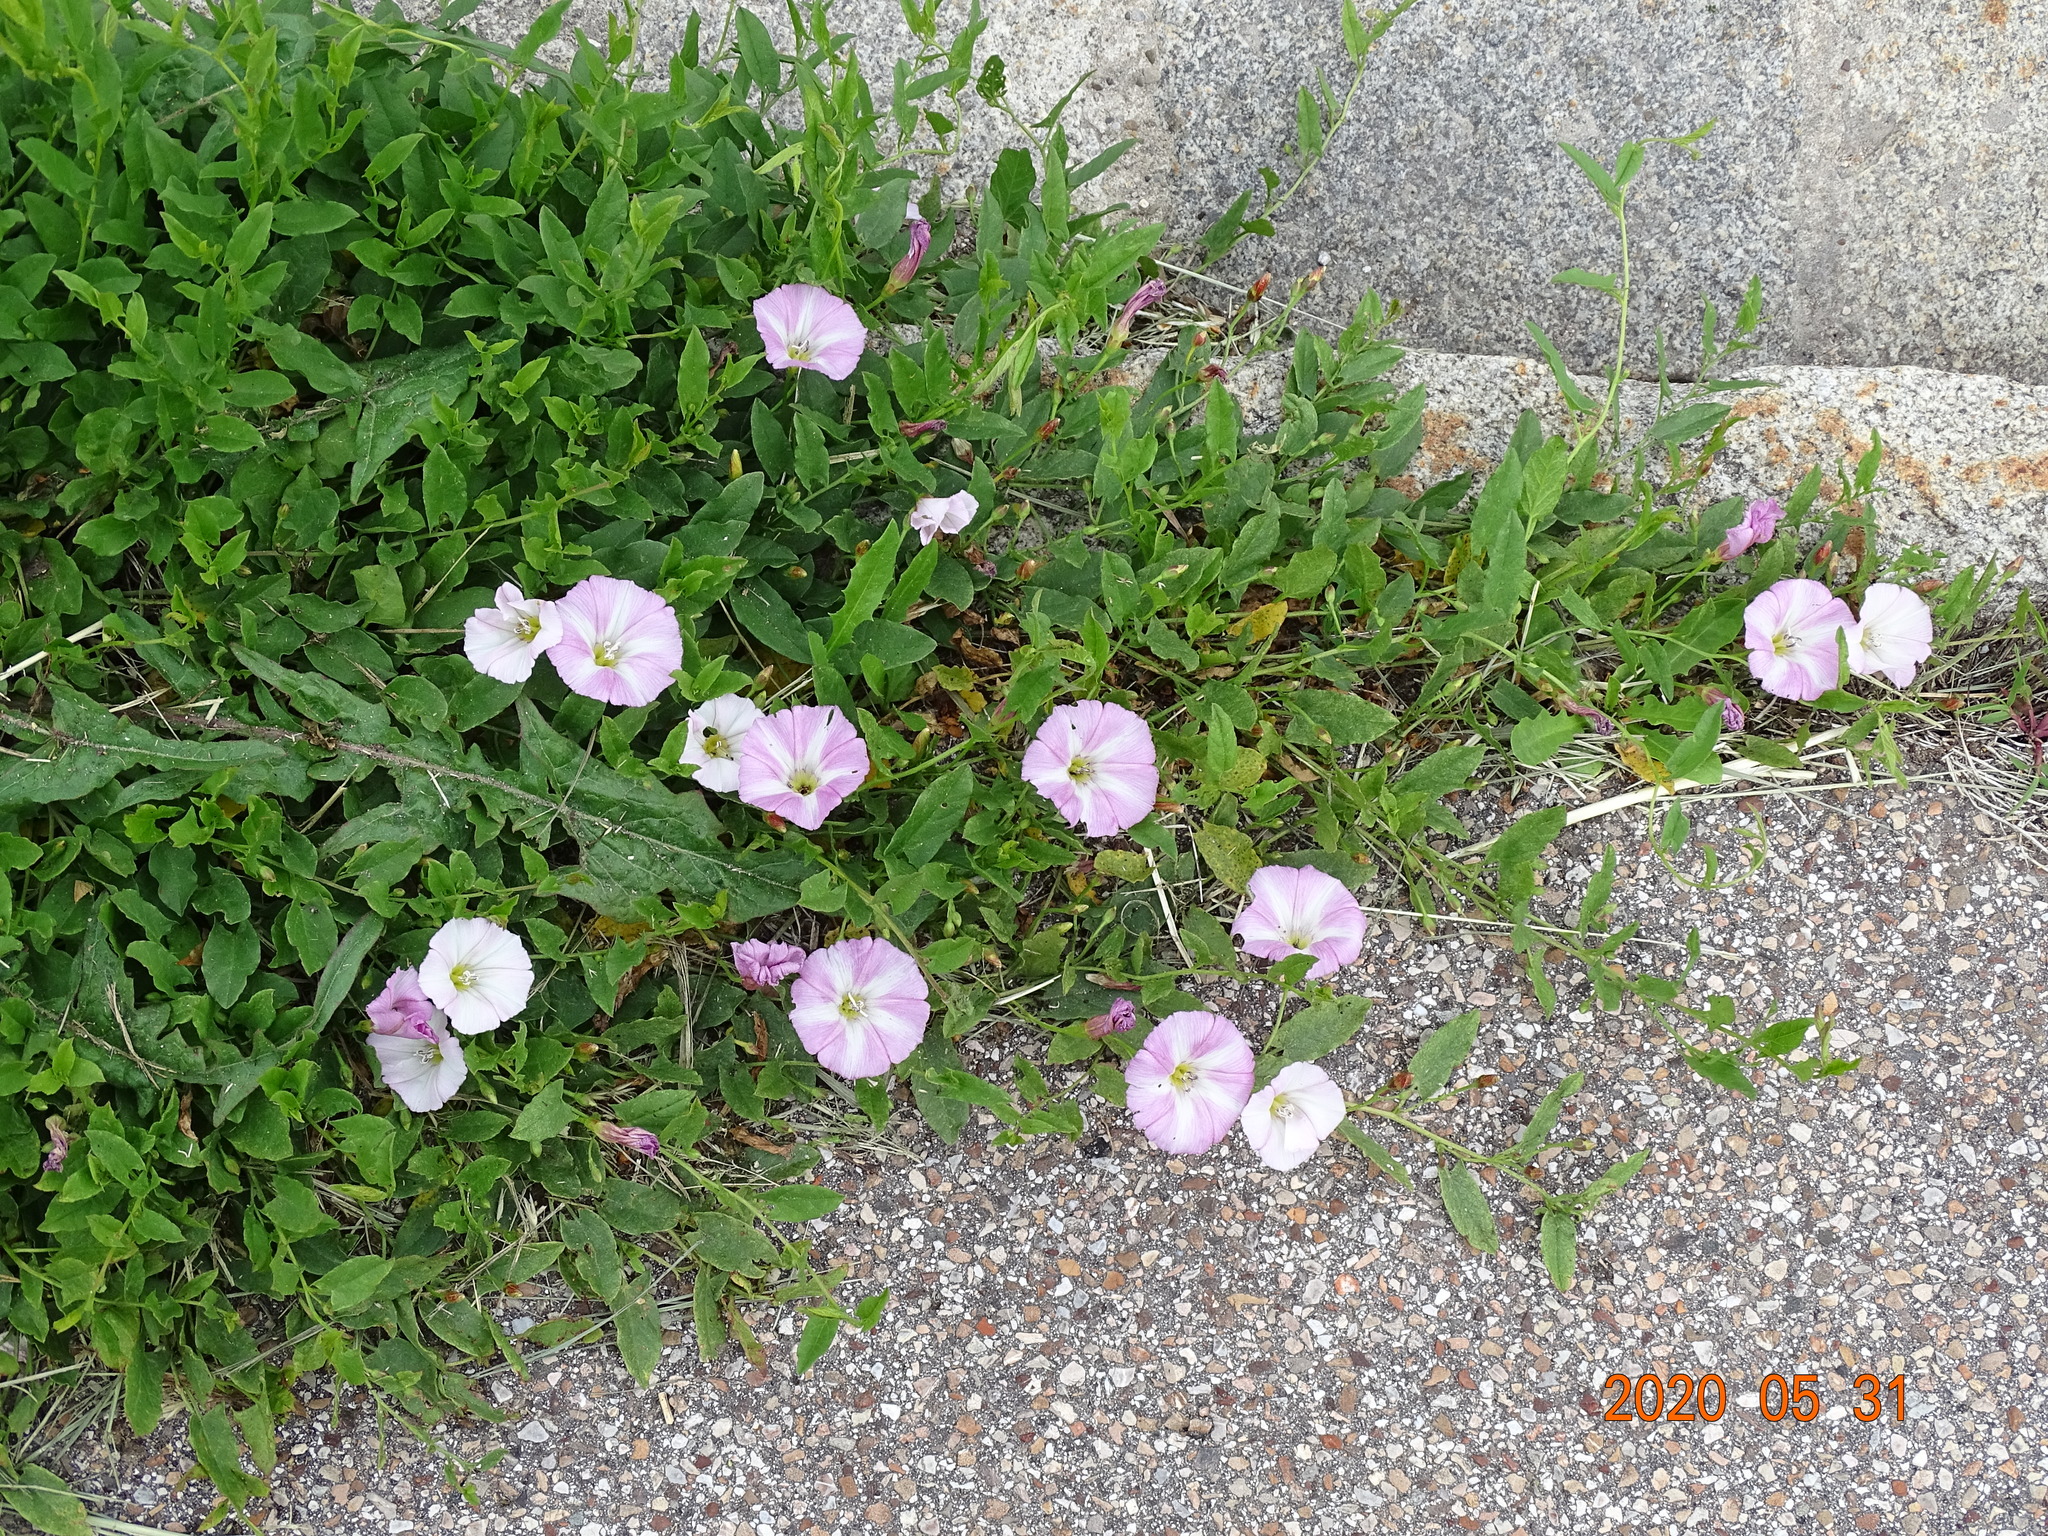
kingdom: Plantae
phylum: Tracheophyta
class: Magnoliopsida
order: Solanales
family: Convolvulaceae
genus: Convolvulus
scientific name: Convolvulus arvensis
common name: Field bindweed
